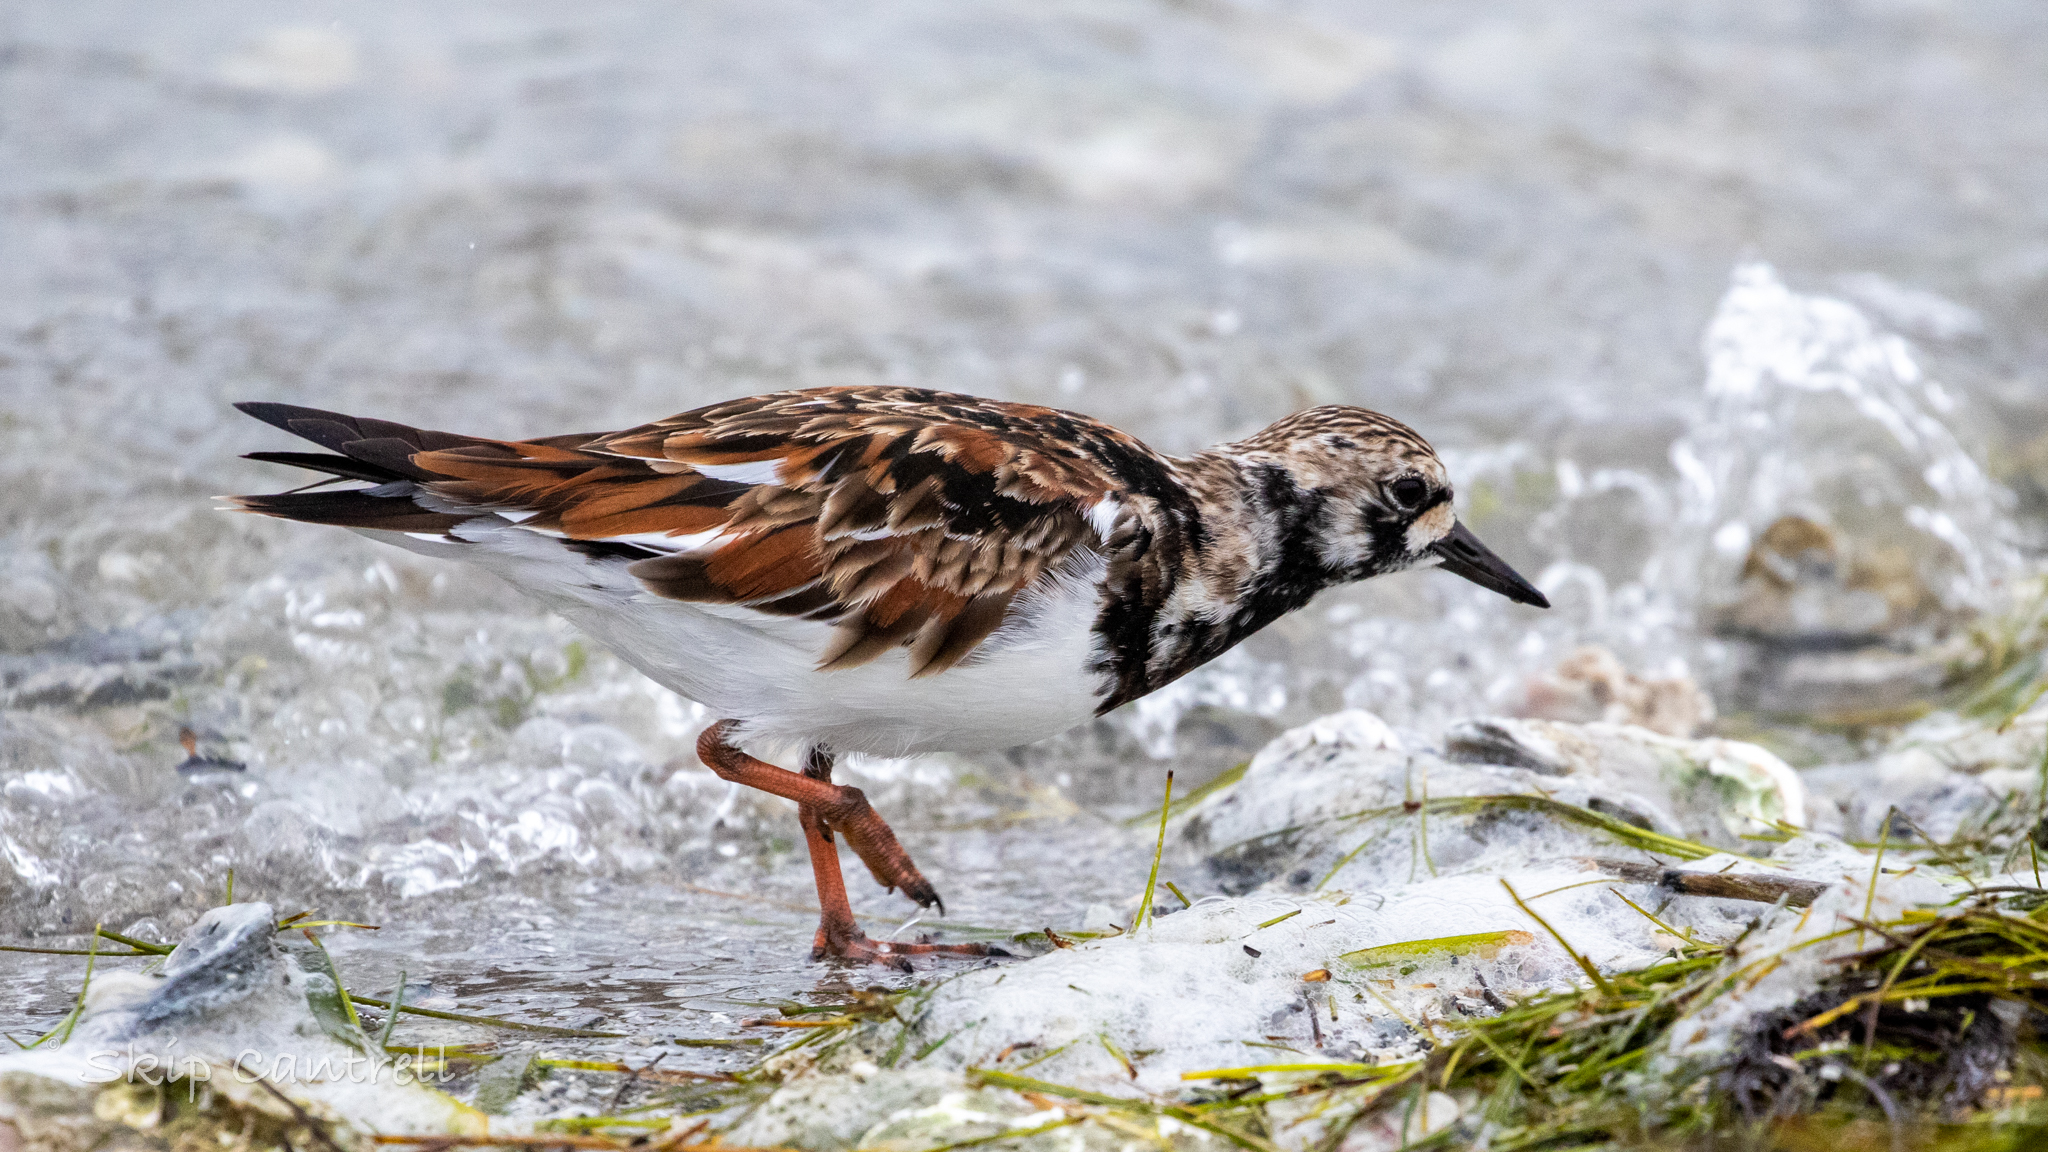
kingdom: Animalia
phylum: Chordata
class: Aves
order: Charadriiformes
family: Scolopacidae
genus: Arenaria
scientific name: Arenaria interpres
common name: Ruddy turnstone
